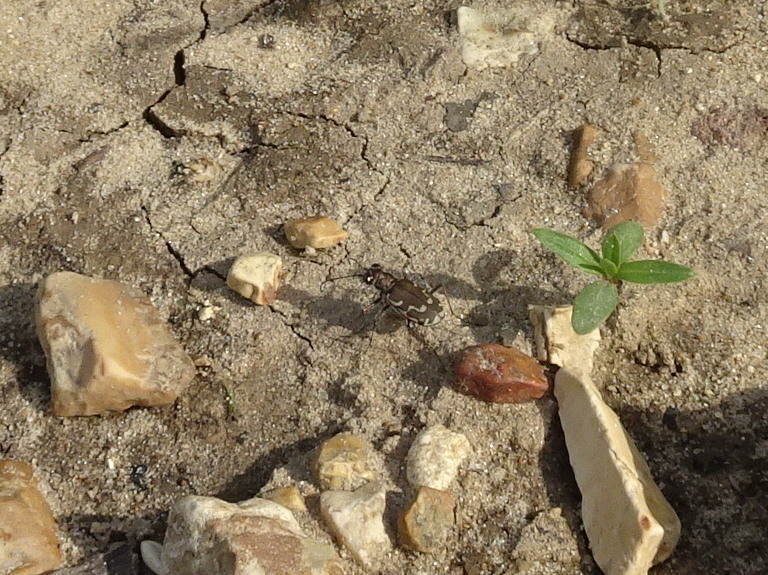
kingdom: Animalia
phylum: Arthropoda
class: Insecta
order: Coleoptera
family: Carabidae
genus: Cicindela
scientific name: Cicindela repanda
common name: Bronzed tiger beetle
